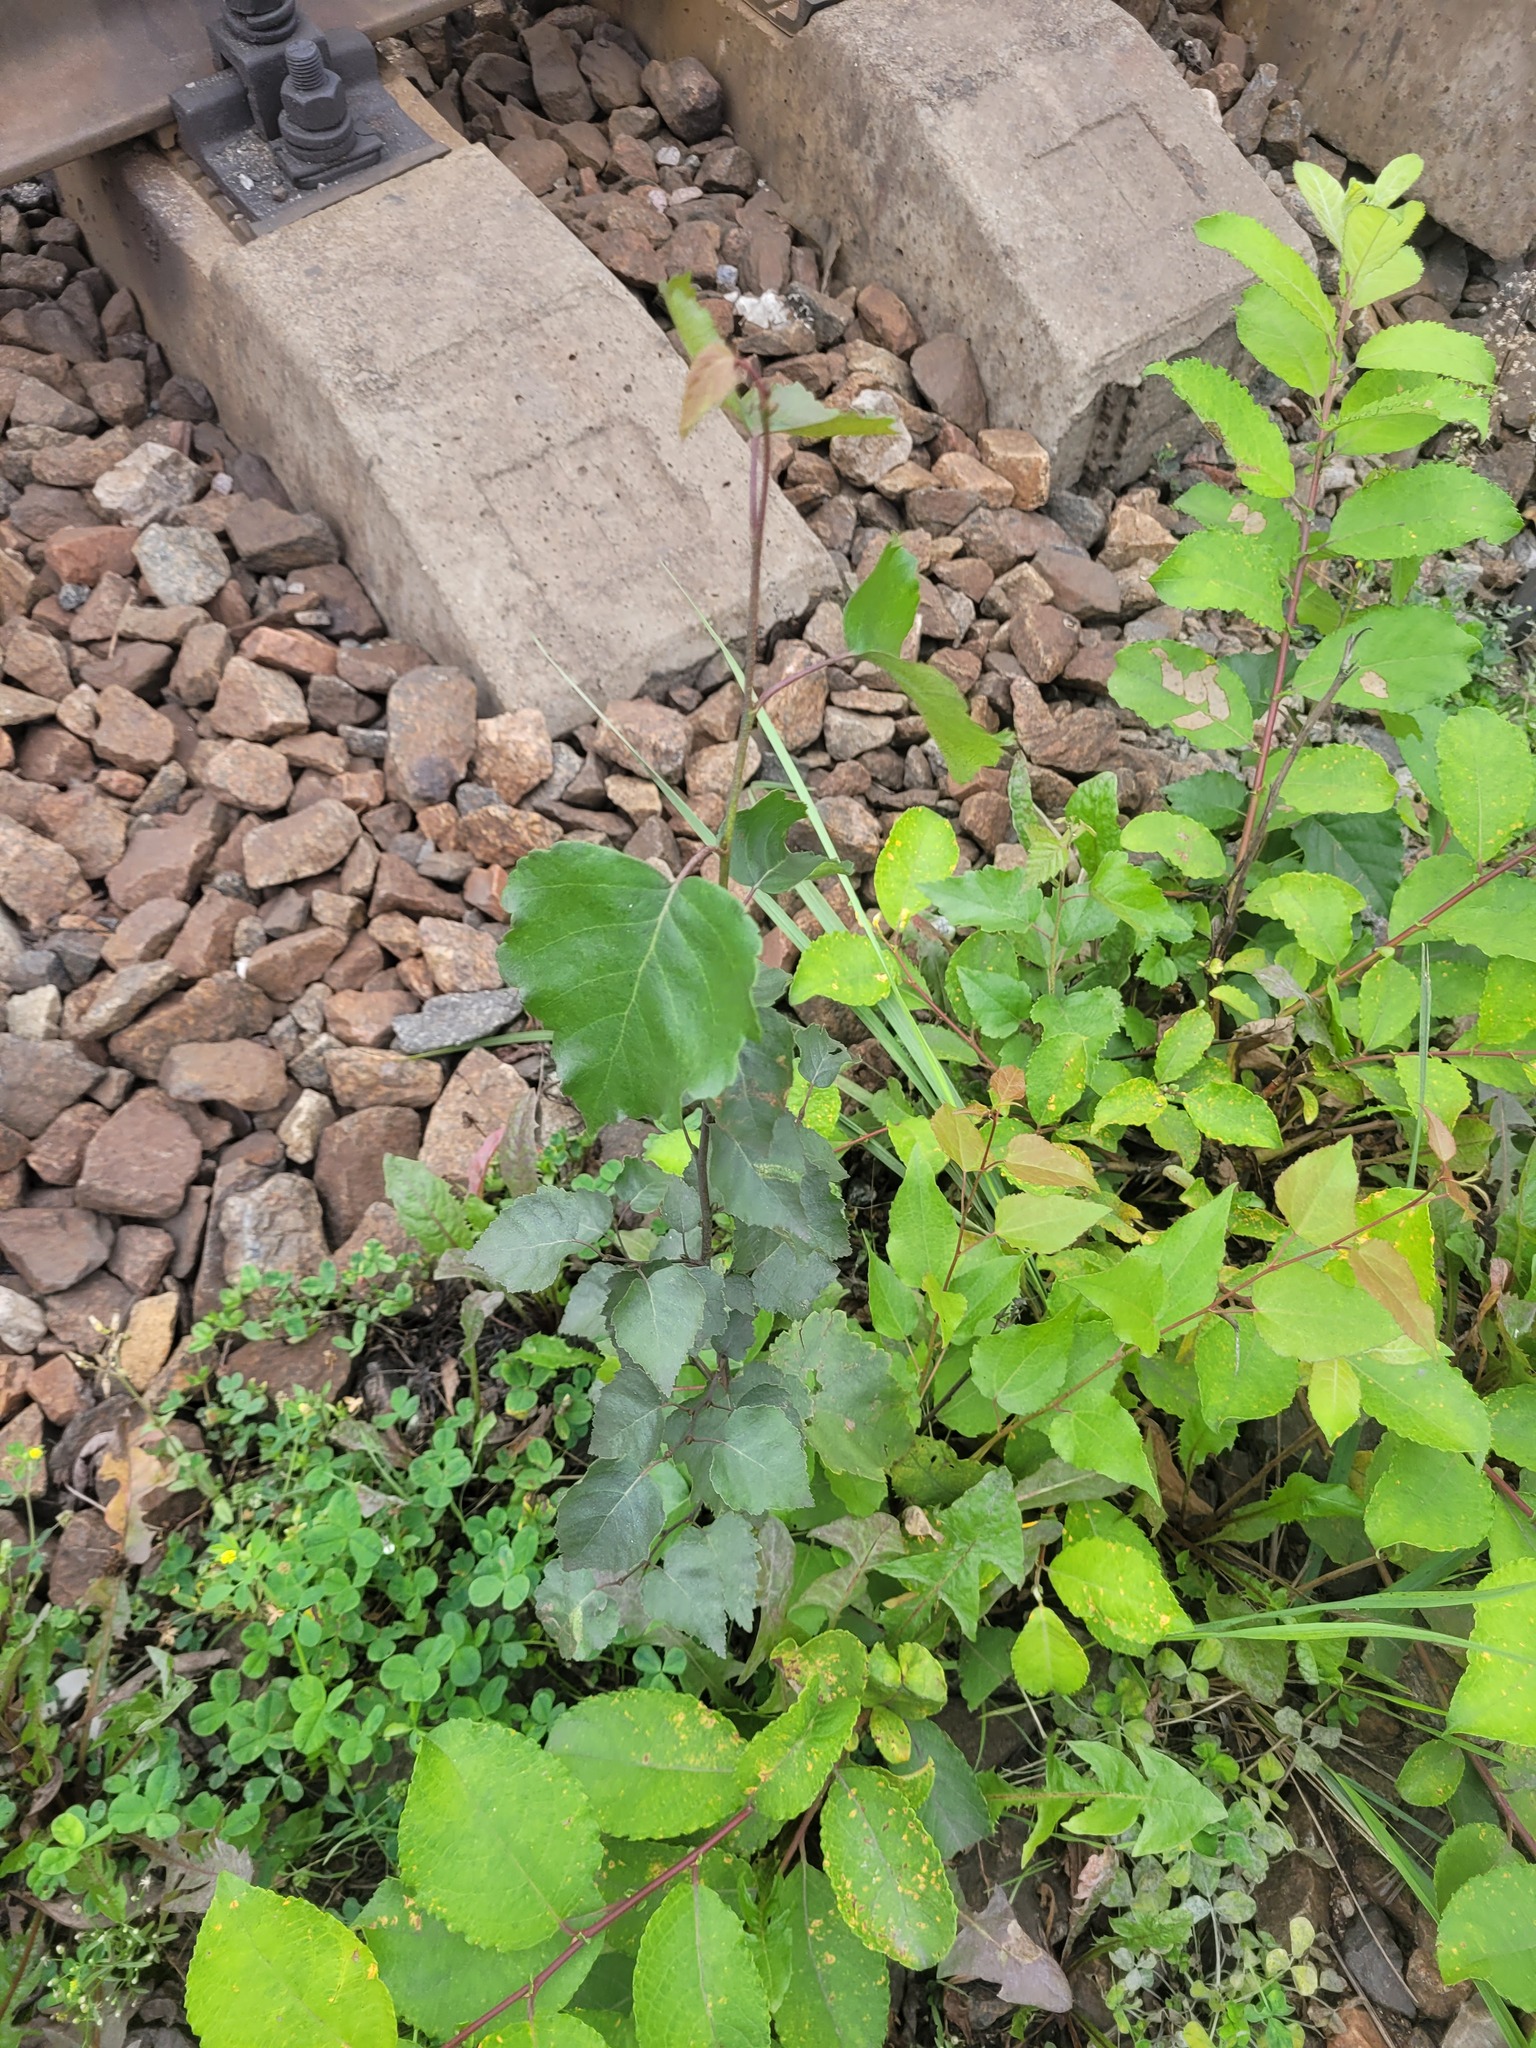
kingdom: Plantae
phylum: Tracheophyta
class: Magnoliopsida
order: Fagales
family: Betulaceae
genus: Betula
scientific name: Betula pendula
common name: Silver birch
